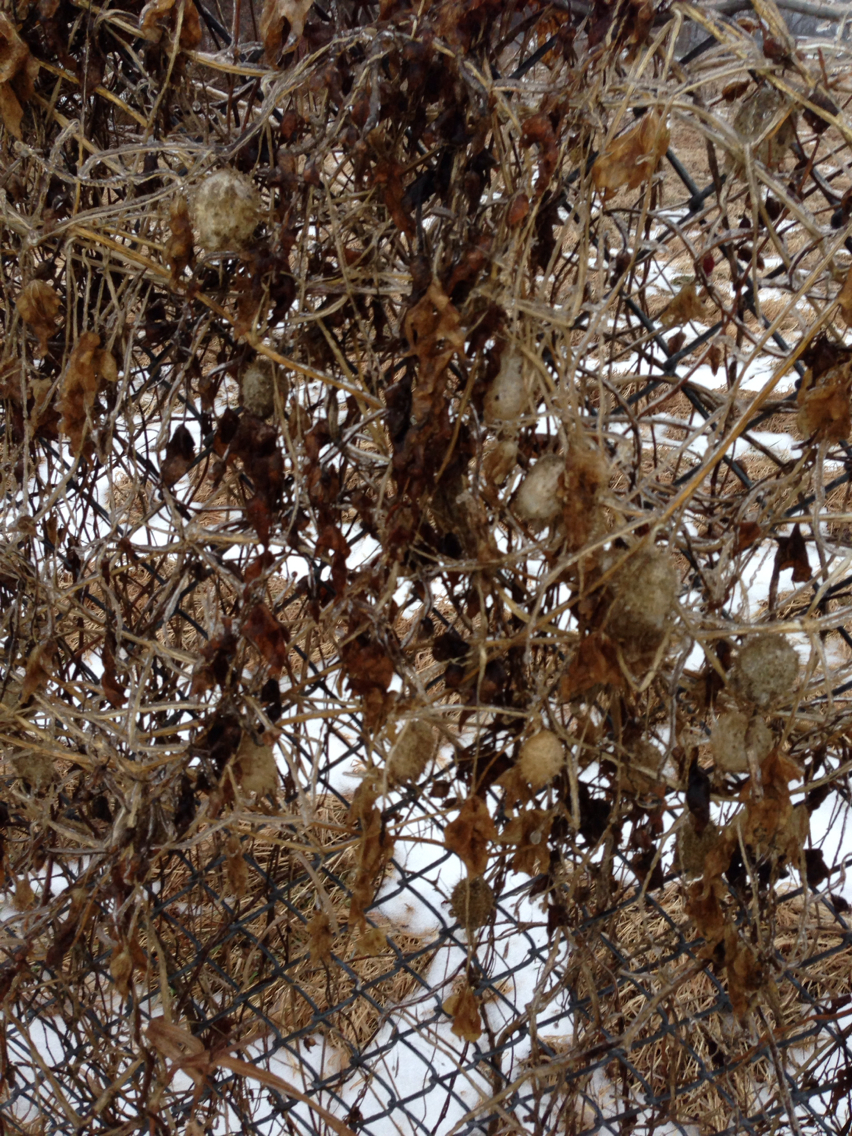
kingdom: Plantae
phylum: Tracheophyta
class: Magnoliopsida
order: Cucurbitales
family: Cucurbitaceae
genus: Echinocystis
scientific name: Echinocystis lobata
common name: Wild cucumber
